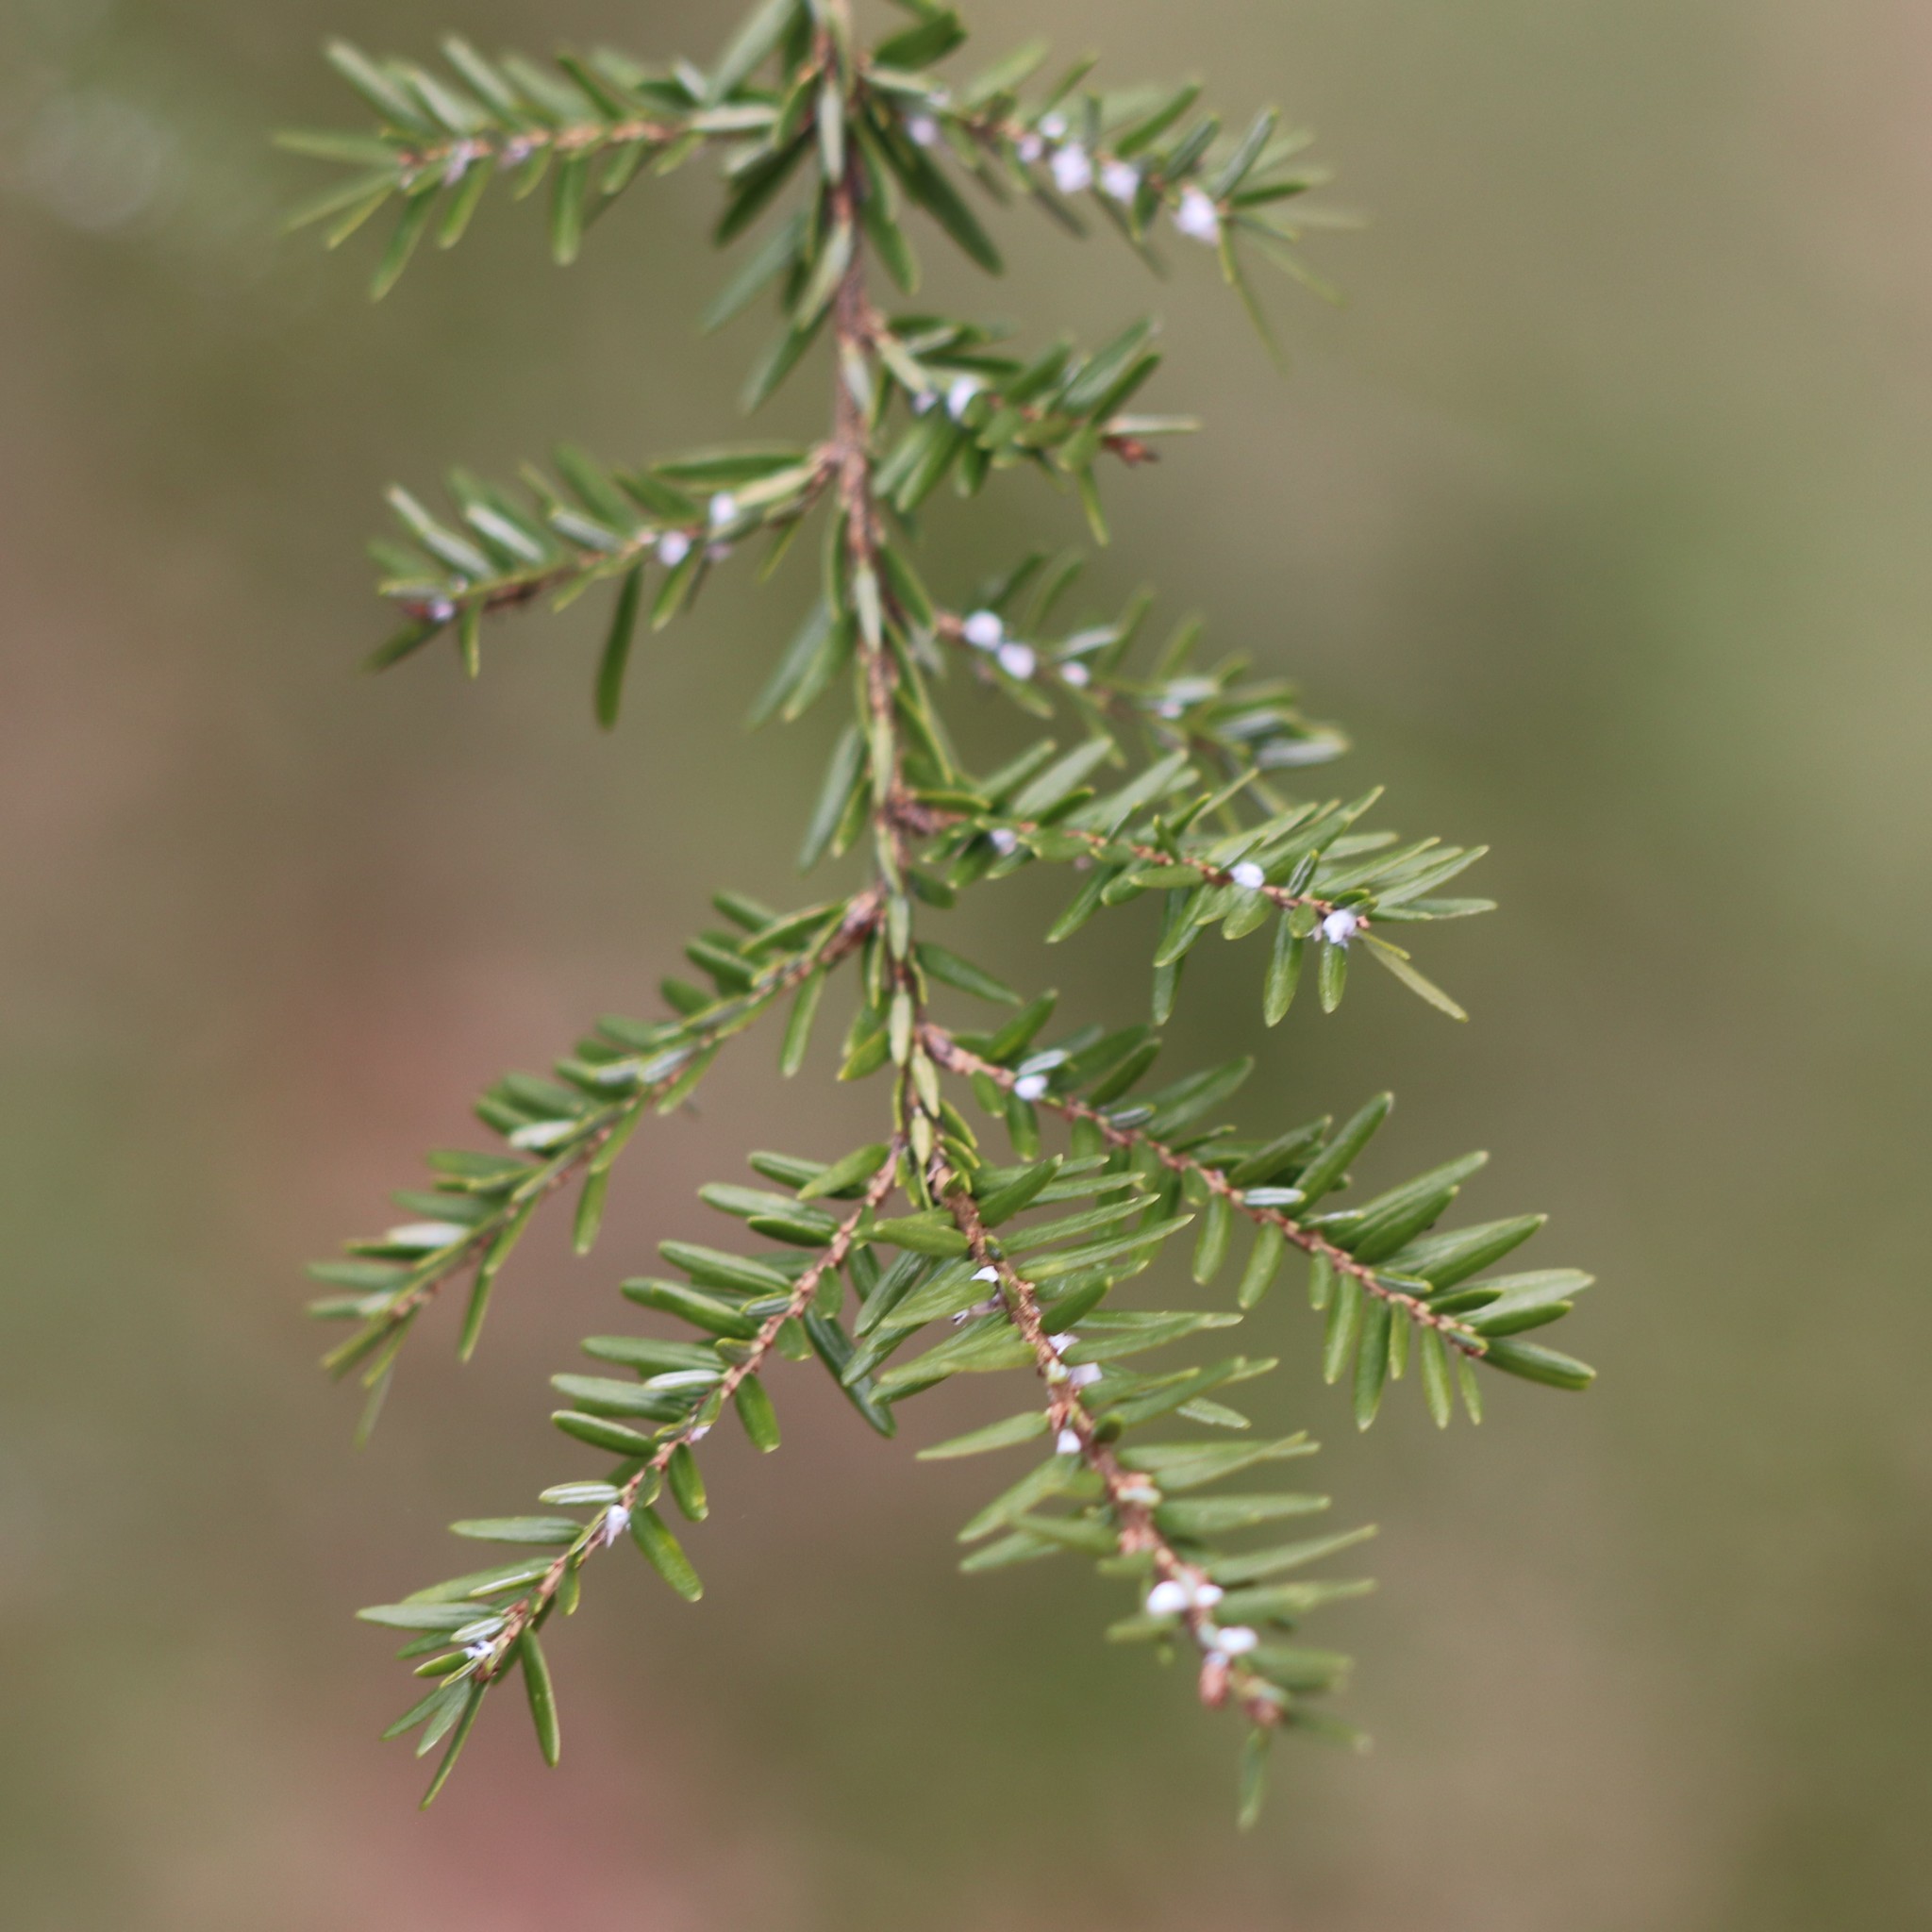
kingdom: Animalia
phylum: Arthropoda
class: Insecta
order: Hemiptera
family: Adelgidae
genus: Adelges
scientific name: Adelges tsugae
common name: Hemlock woolly adelgid
